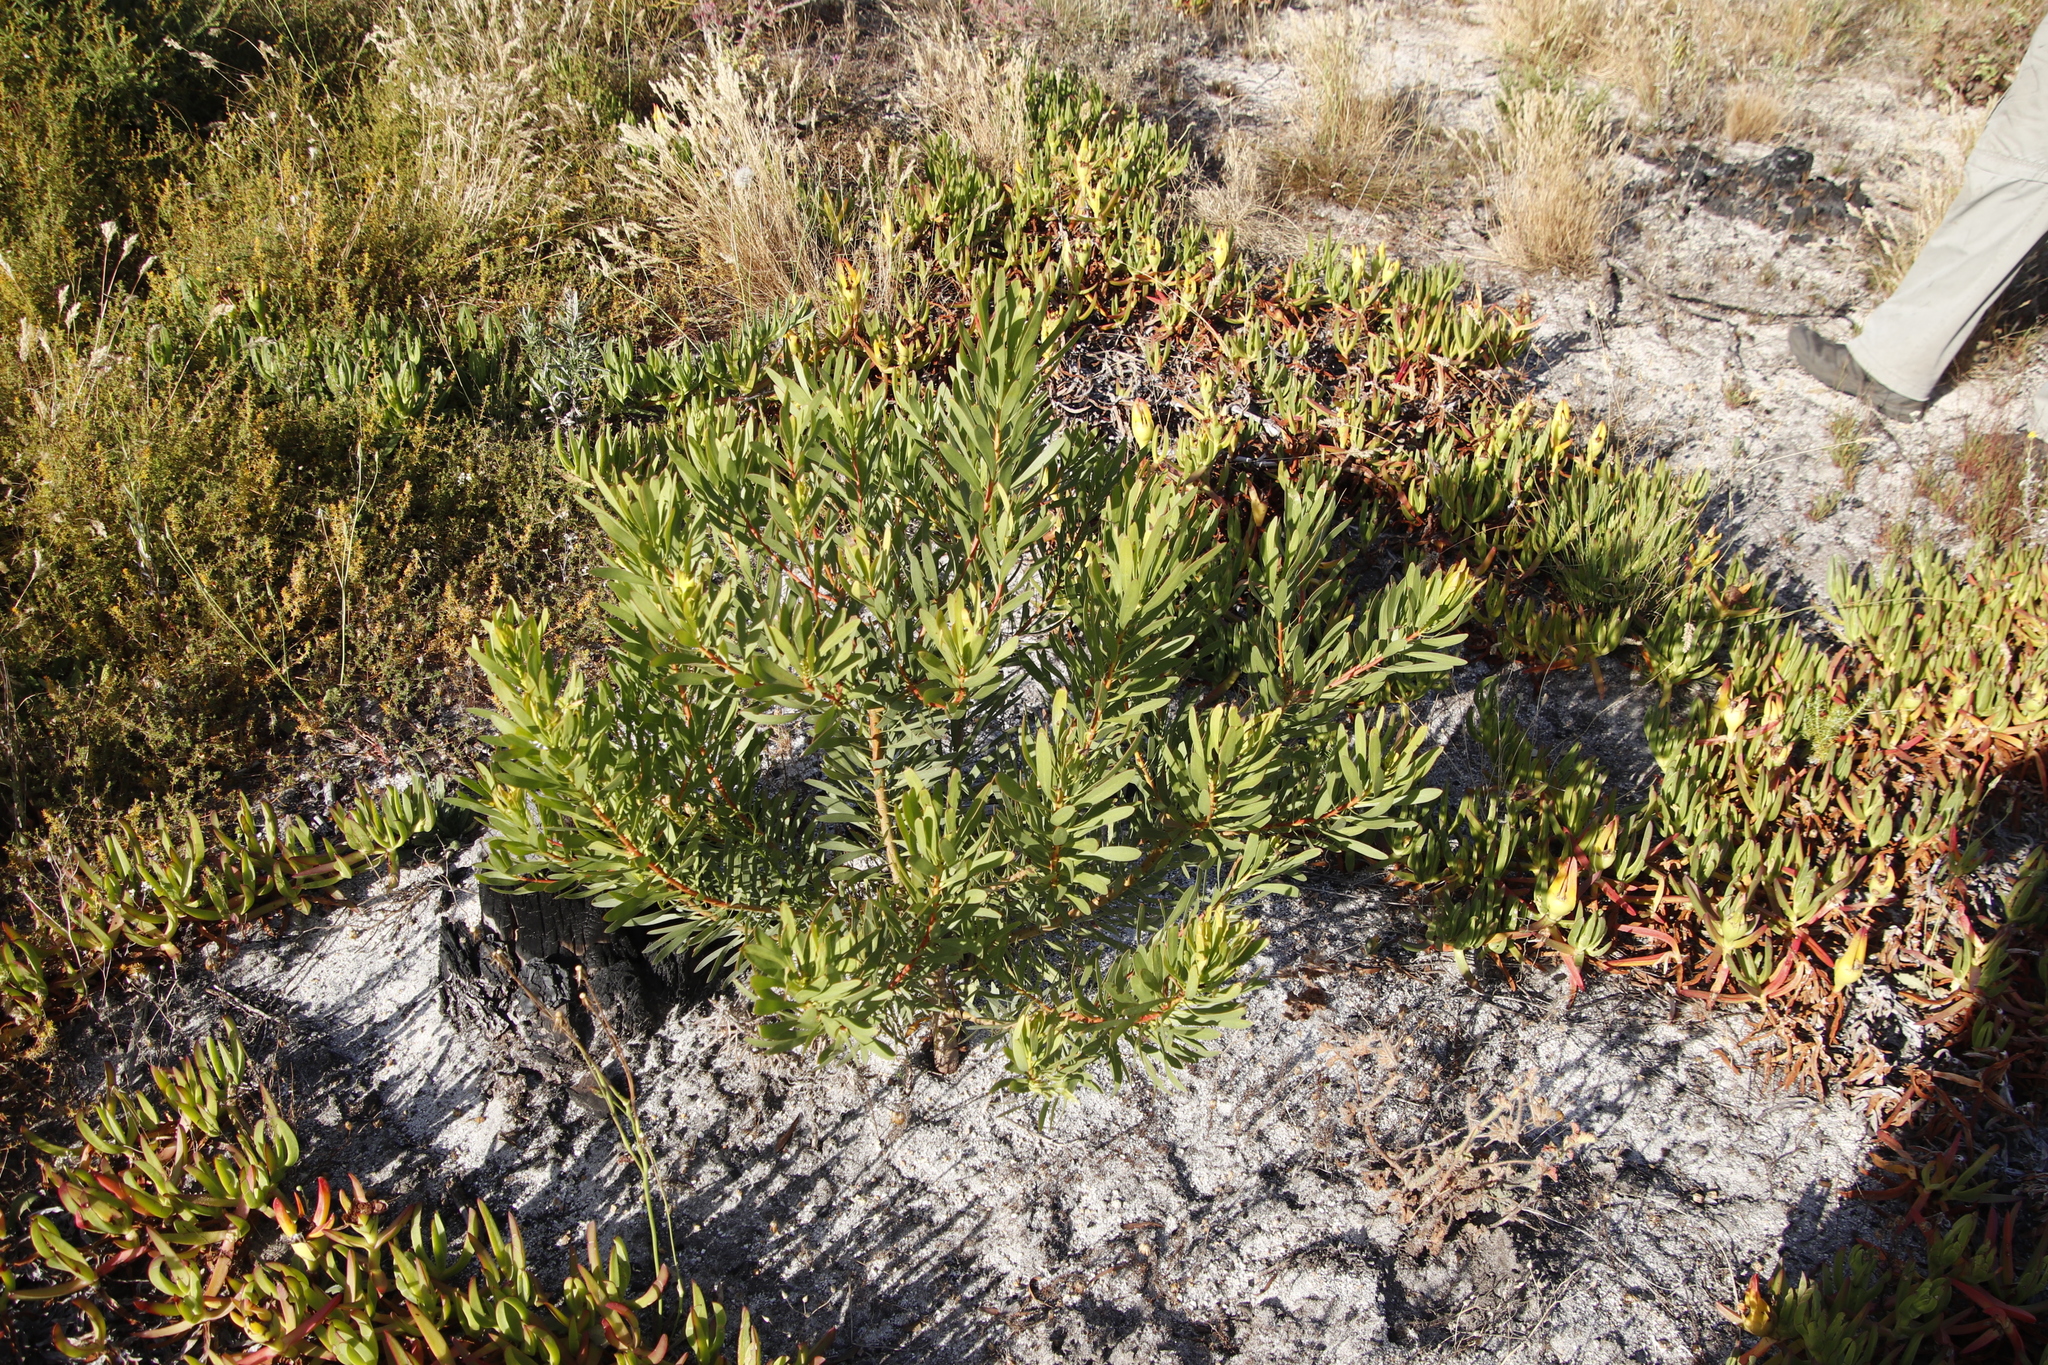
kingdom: Plantae
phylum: Tracheophyta
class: Magnoliopsida
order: Proteales
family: Proteaceae
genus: Protea
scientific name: Protea repens
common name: Sugarbush
